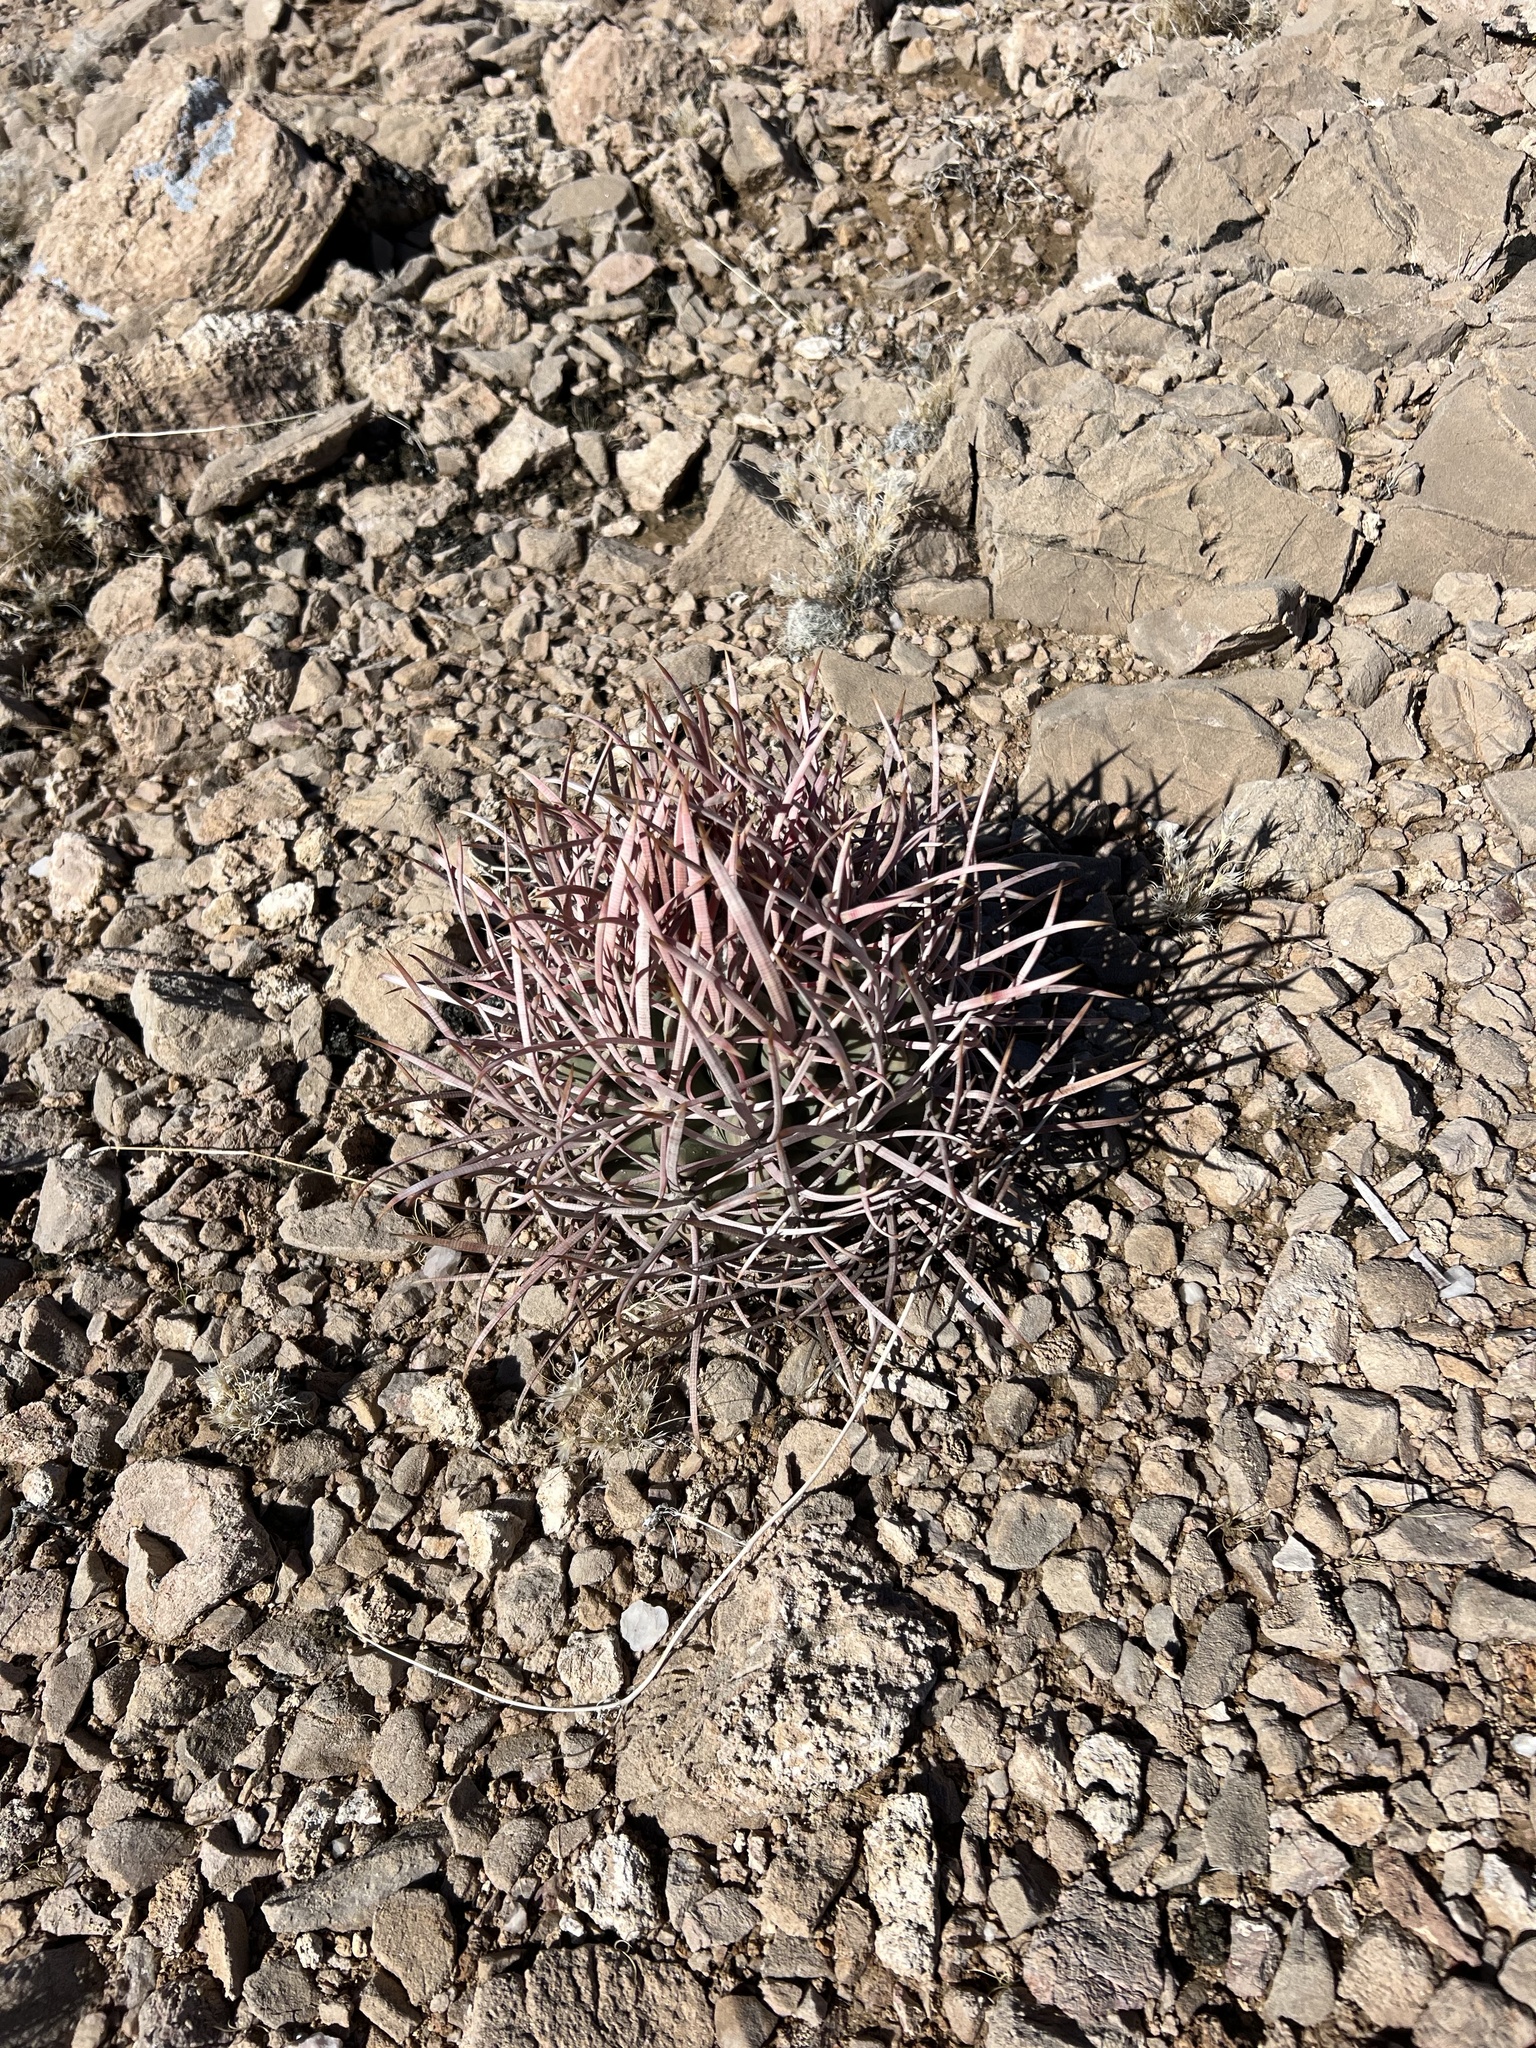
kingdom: Plantae
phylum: Tracheophyta
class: Magnoliopsida
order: Caryophyllales
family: Cactaceae
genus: Echinocactus
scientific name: Echinocactus polycephalus
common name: Cottontop cactus
